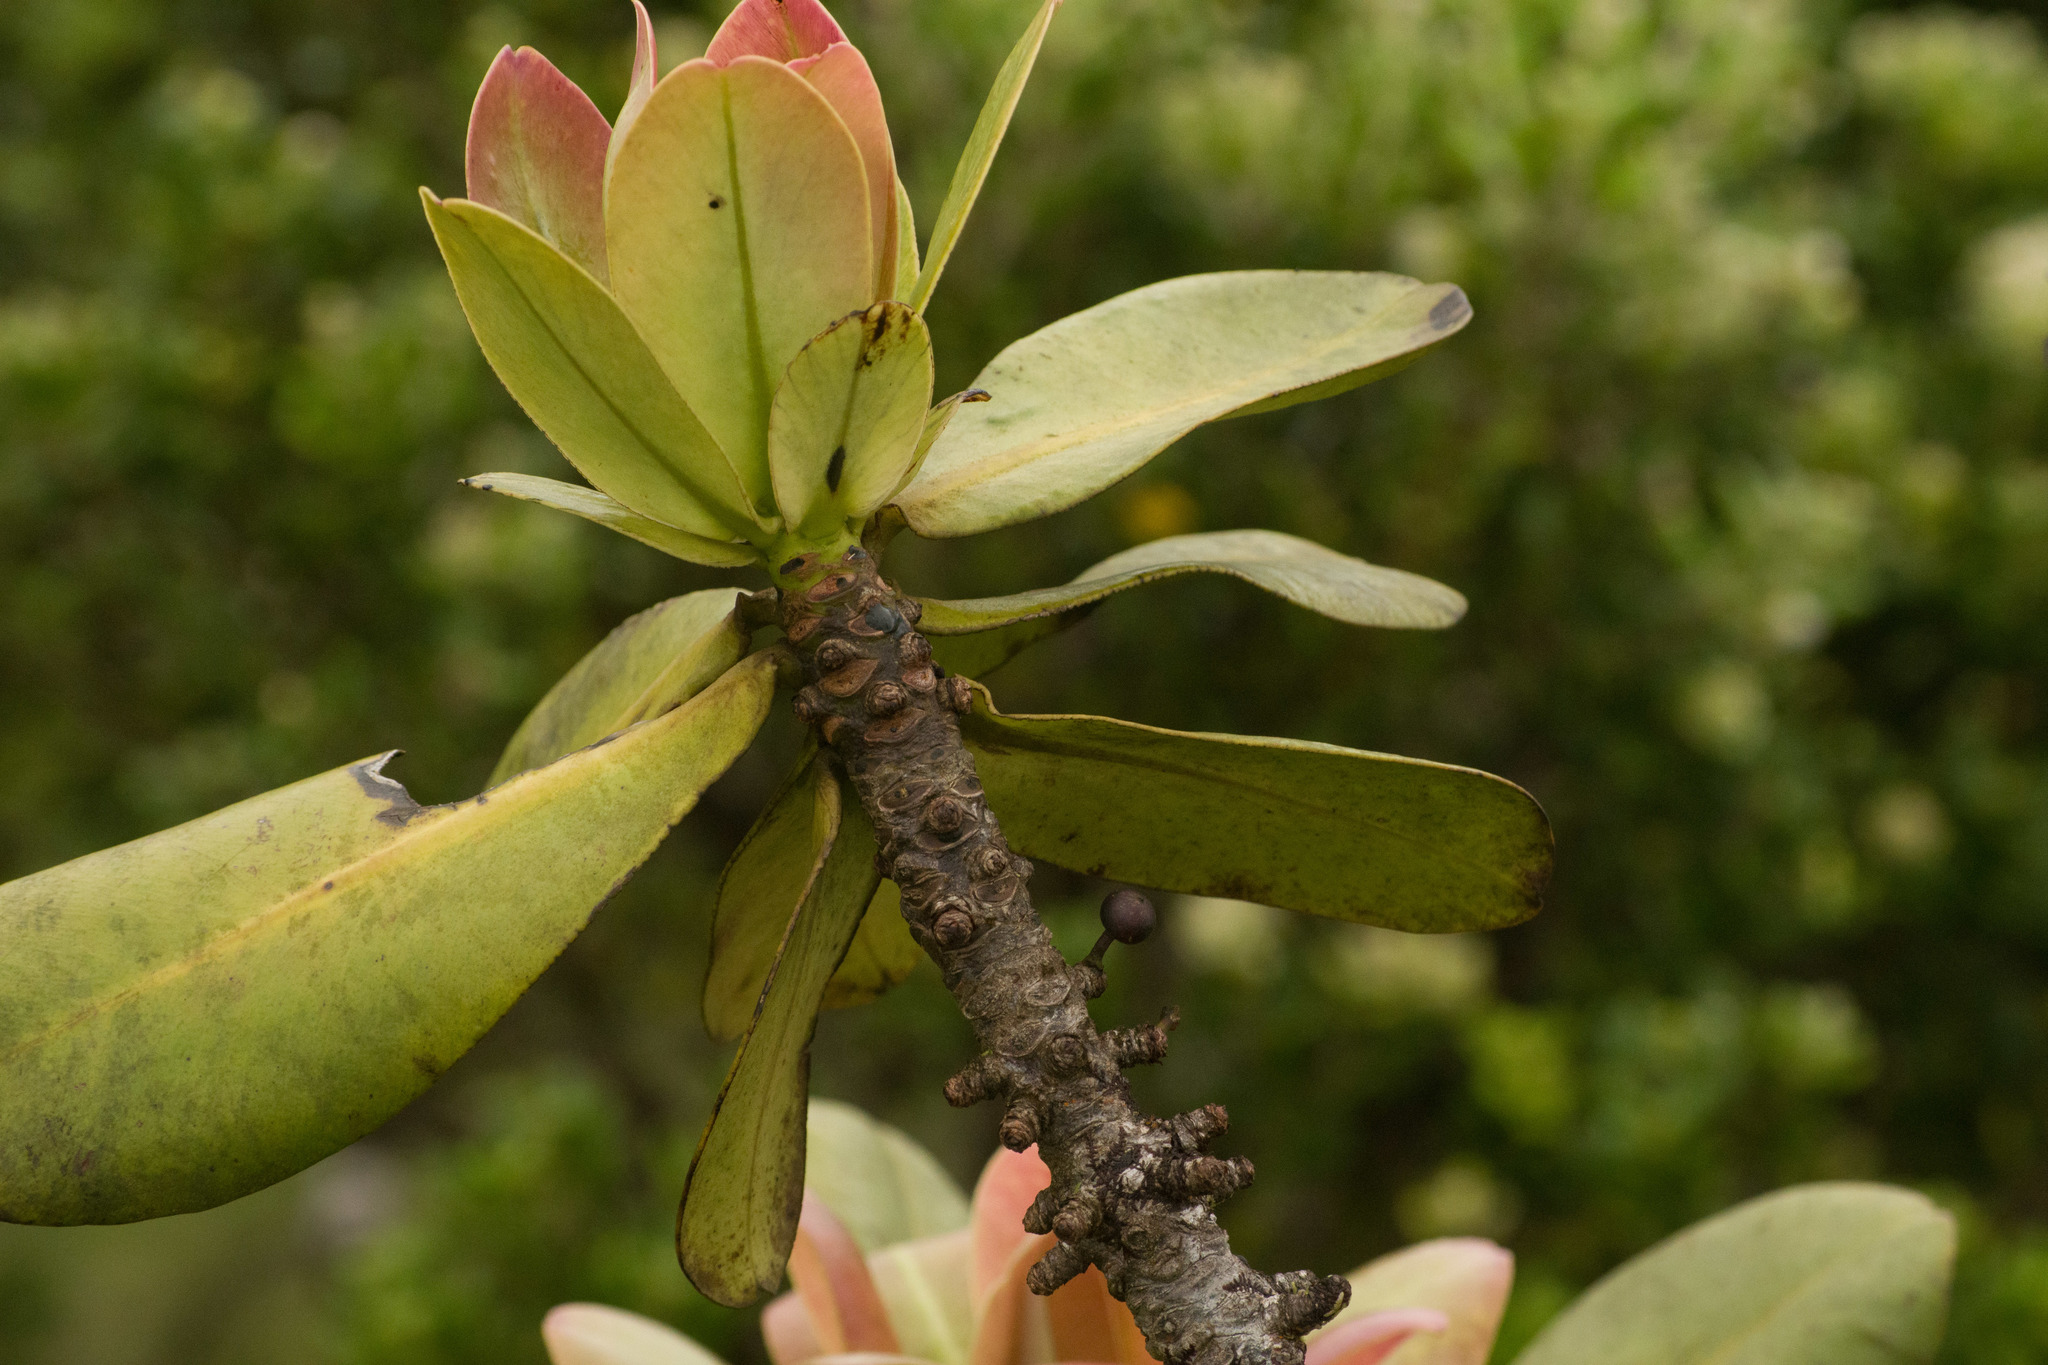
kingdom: Plantae
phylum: Tracheophyta
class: Magnoliopsida
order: Ericales
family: Primulaceae
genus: Myrsine
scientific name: Myrsine pukooensis
